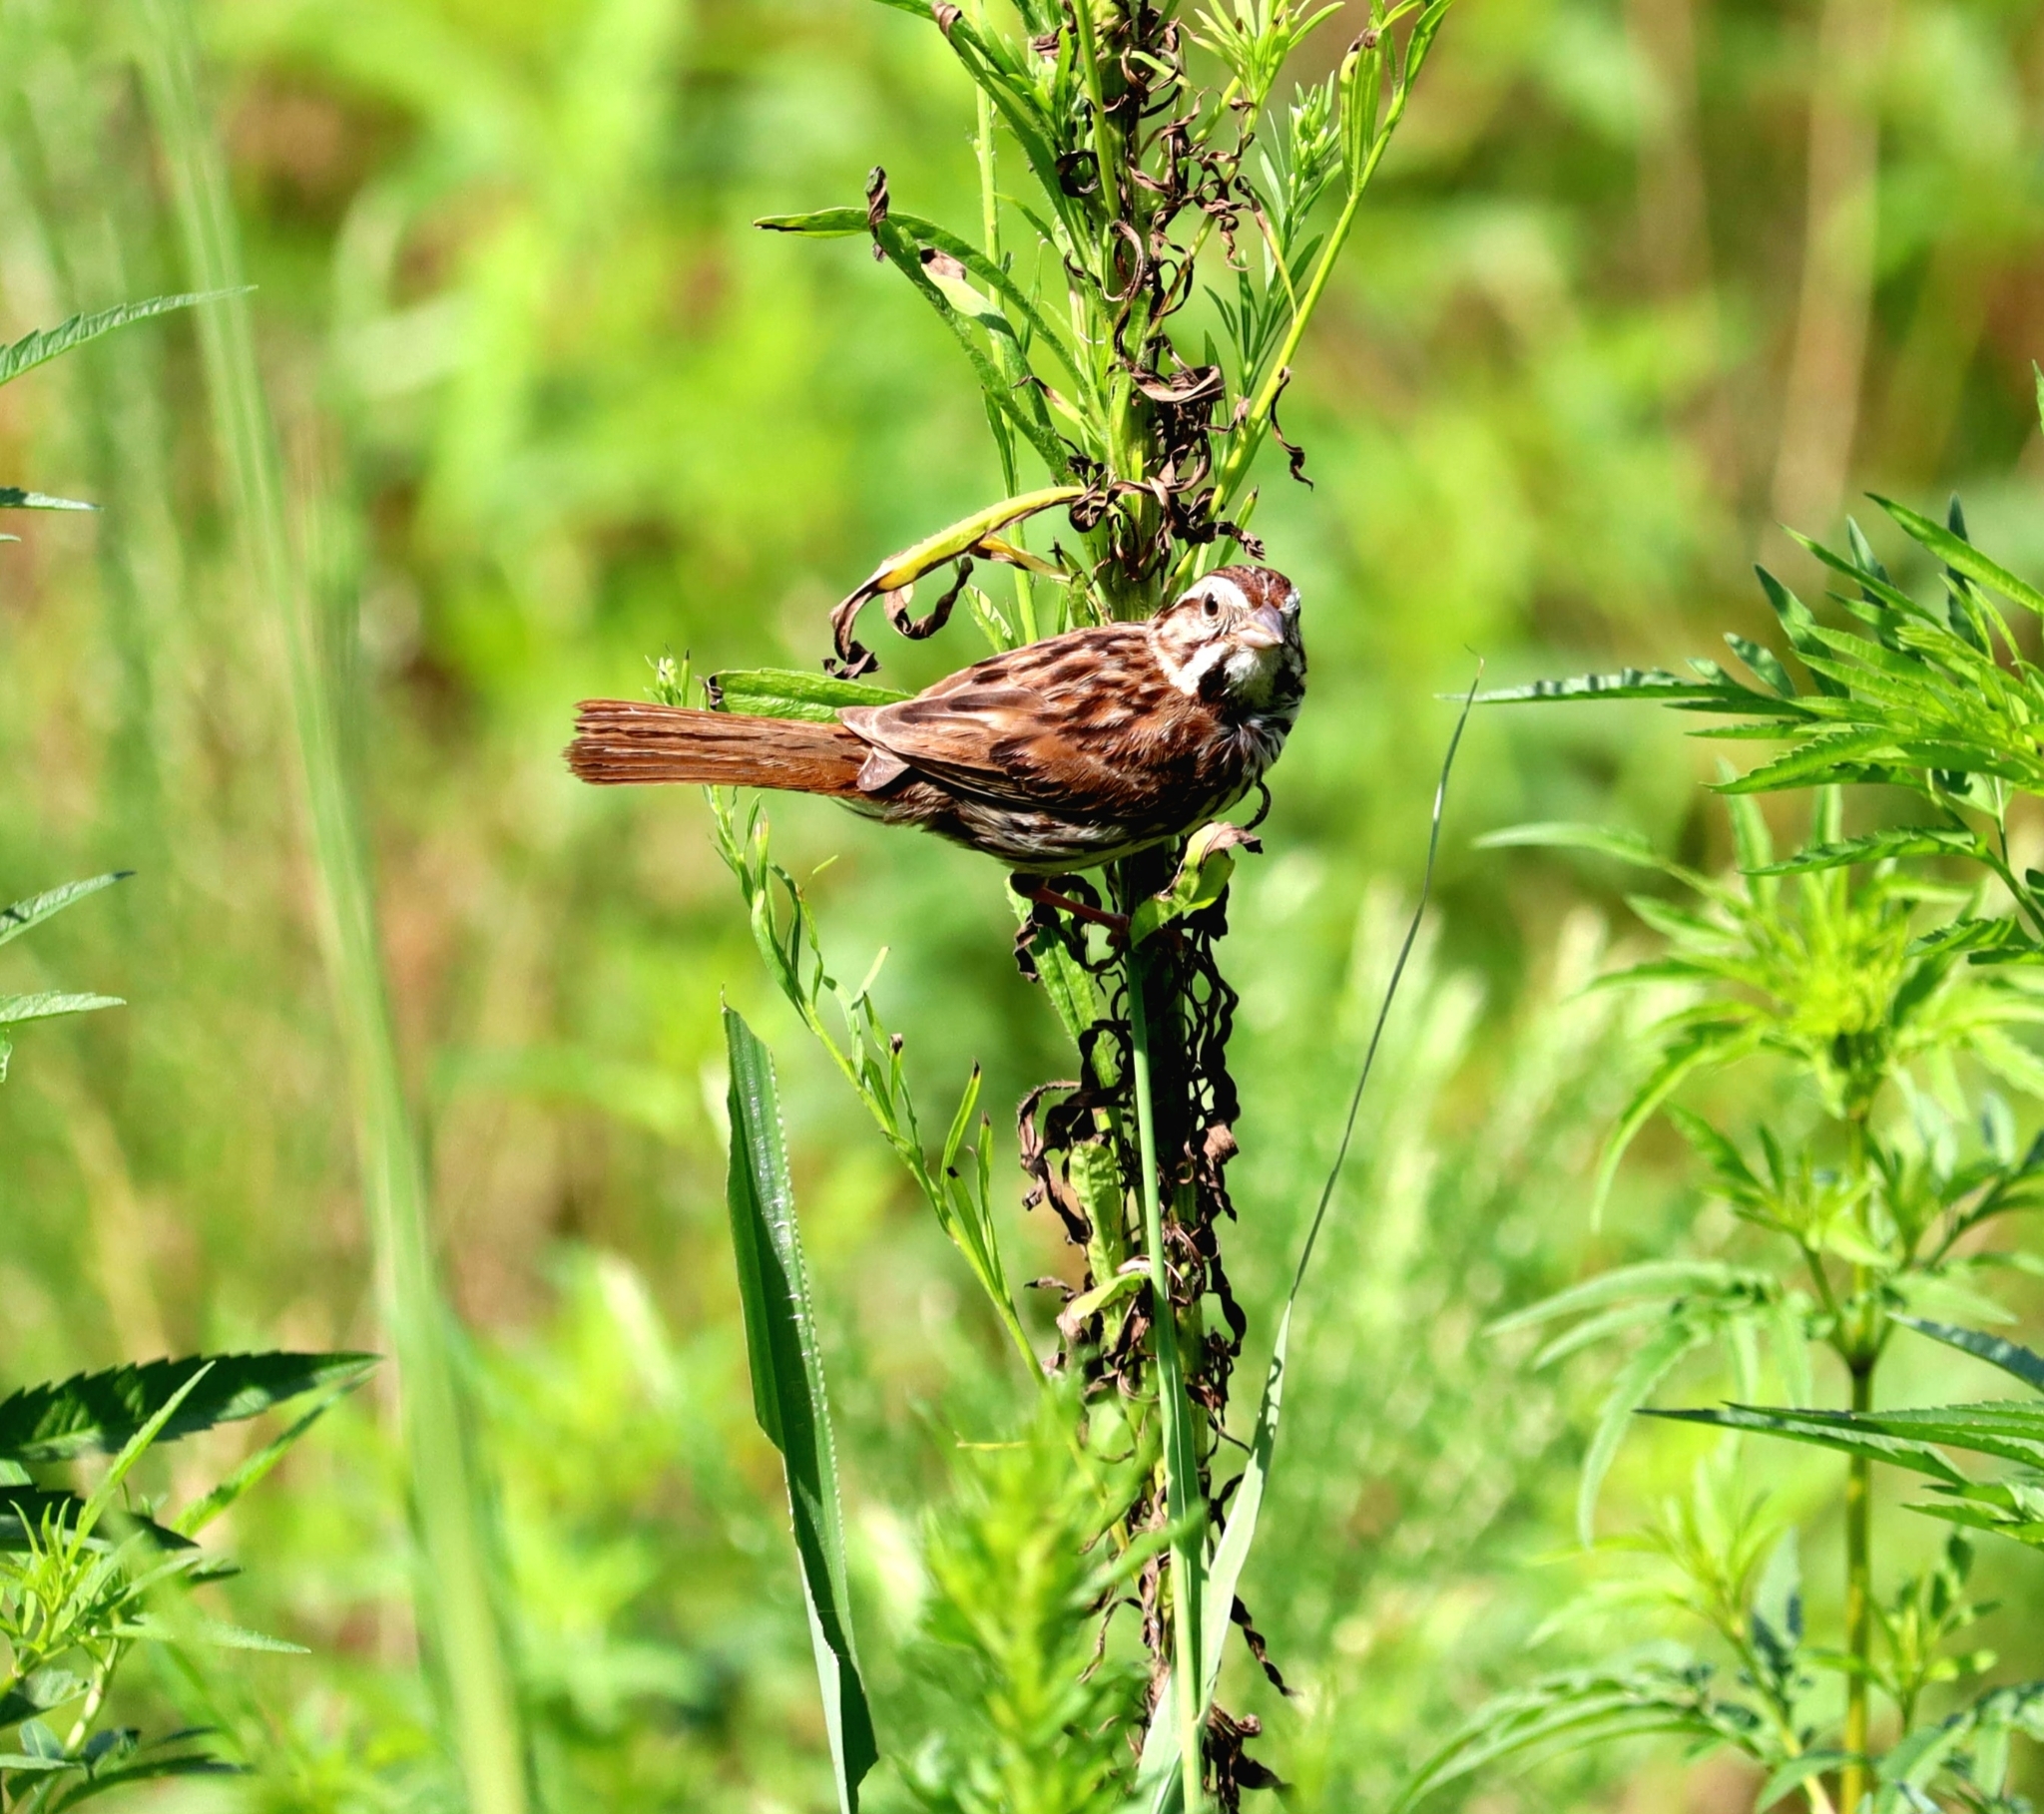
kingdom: Animalia
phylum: Chordata
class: Aves
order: Passeriformes
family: Passerellidae
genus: Melospiza
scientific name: Melospiza melodia
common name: Song sparrow
